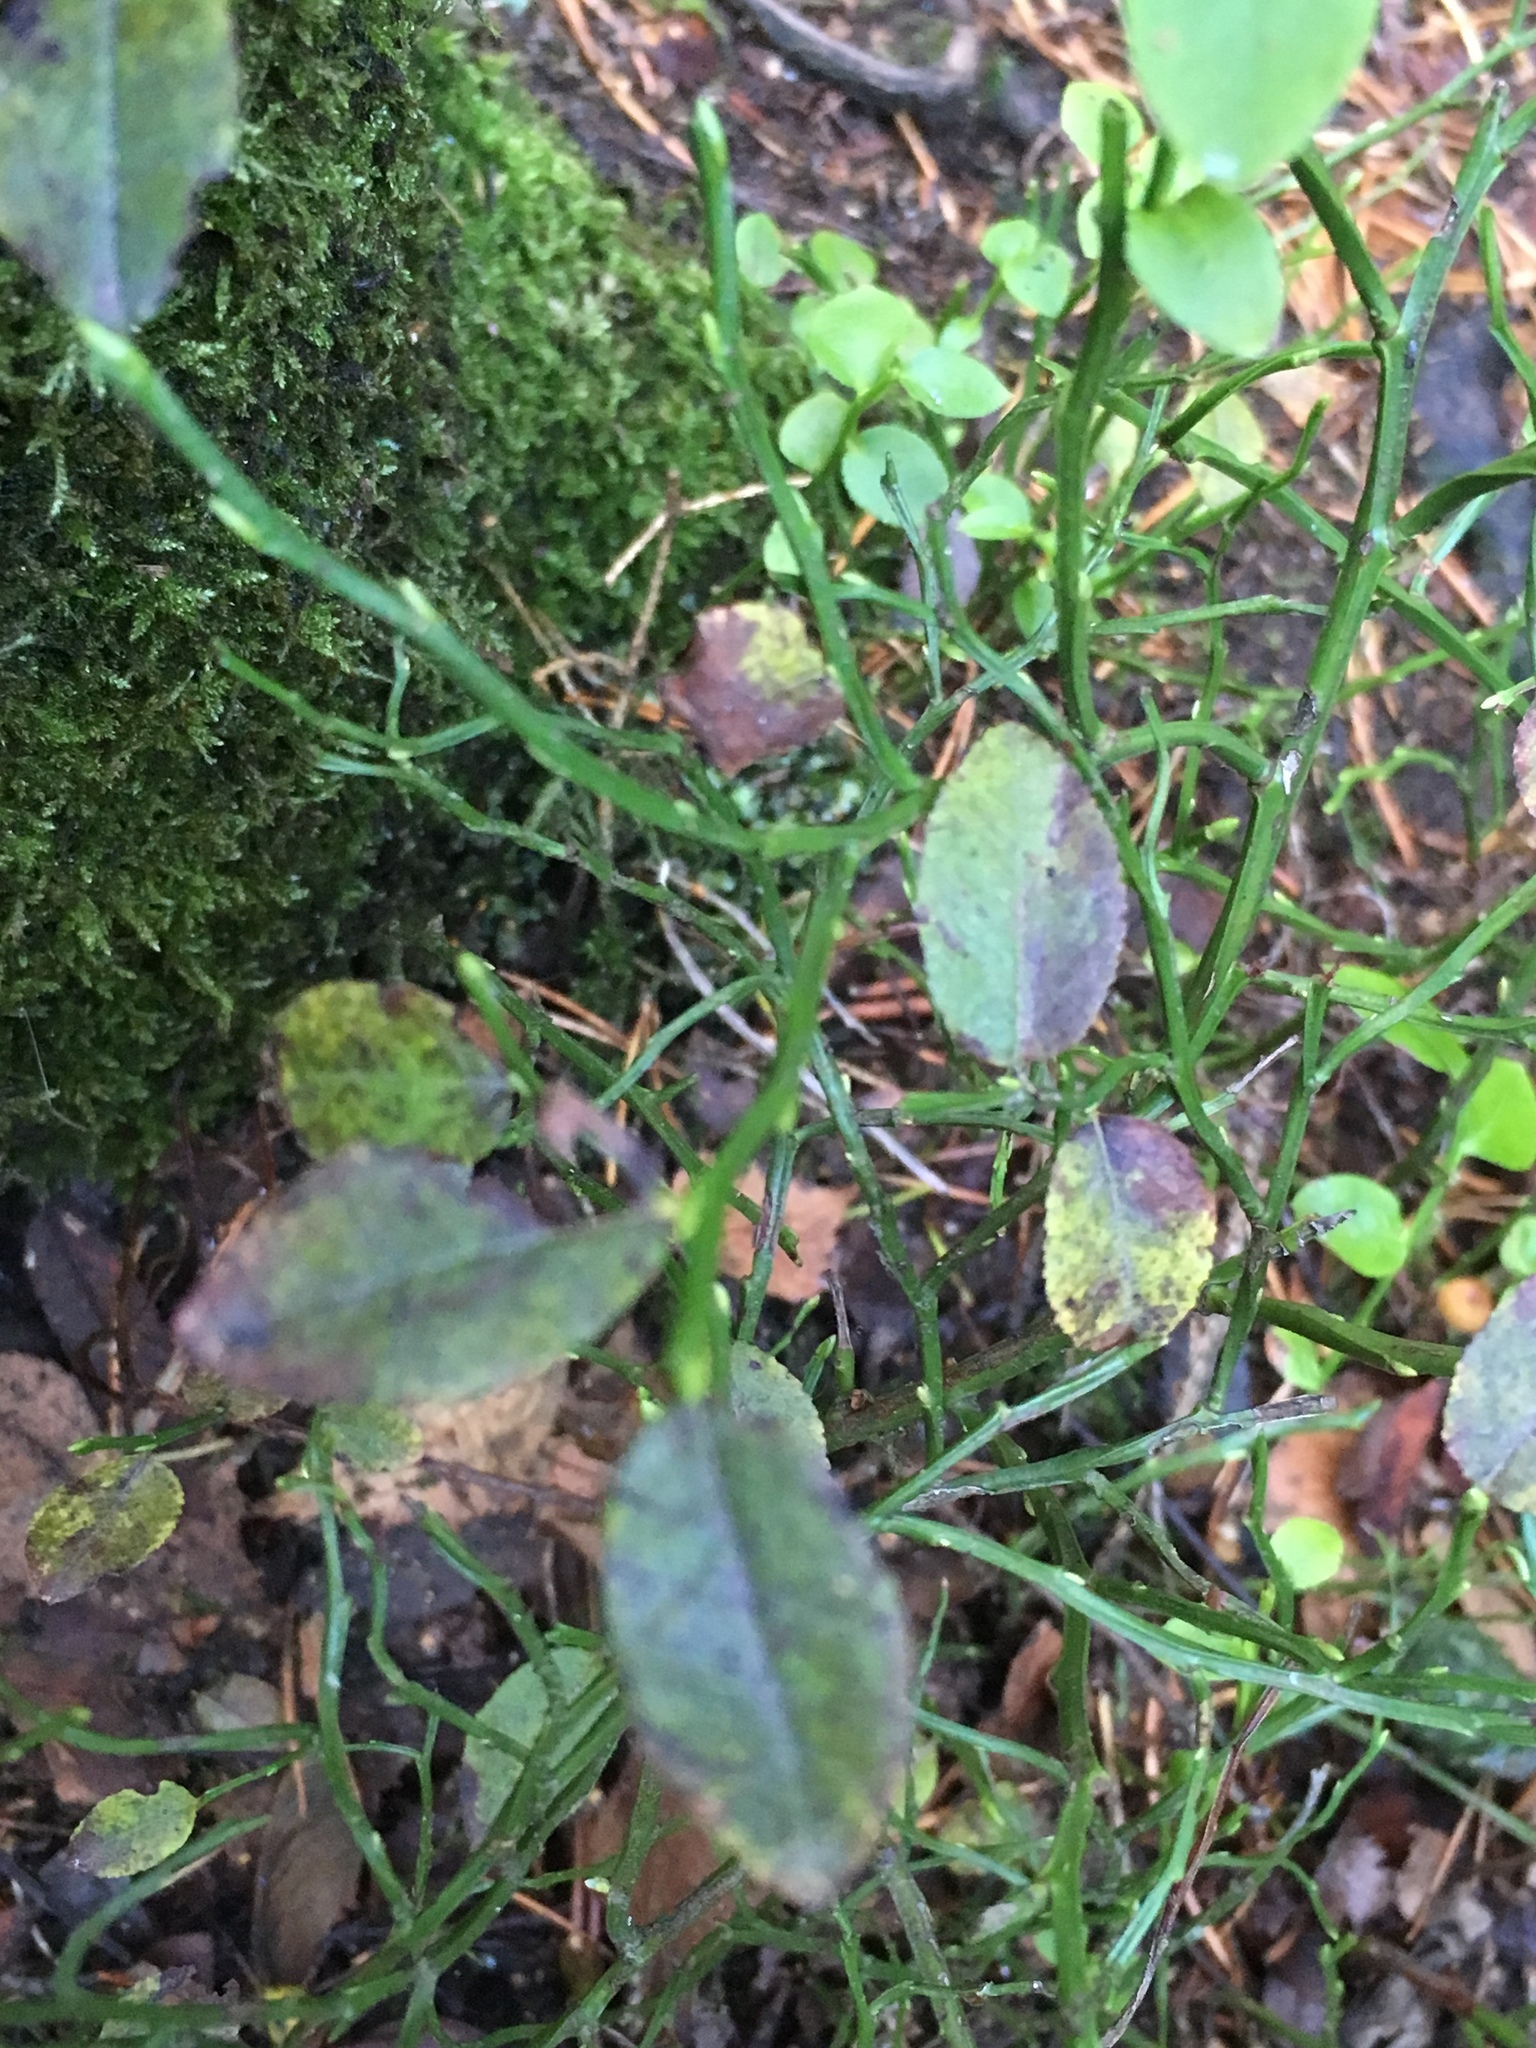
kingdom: Plantae
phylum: Tracheophyta
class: Magnoliopsida
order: Ericales
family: Ericaceae
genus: Vaccinium
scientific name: Vaccinium myrtillus
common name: Bilberry
